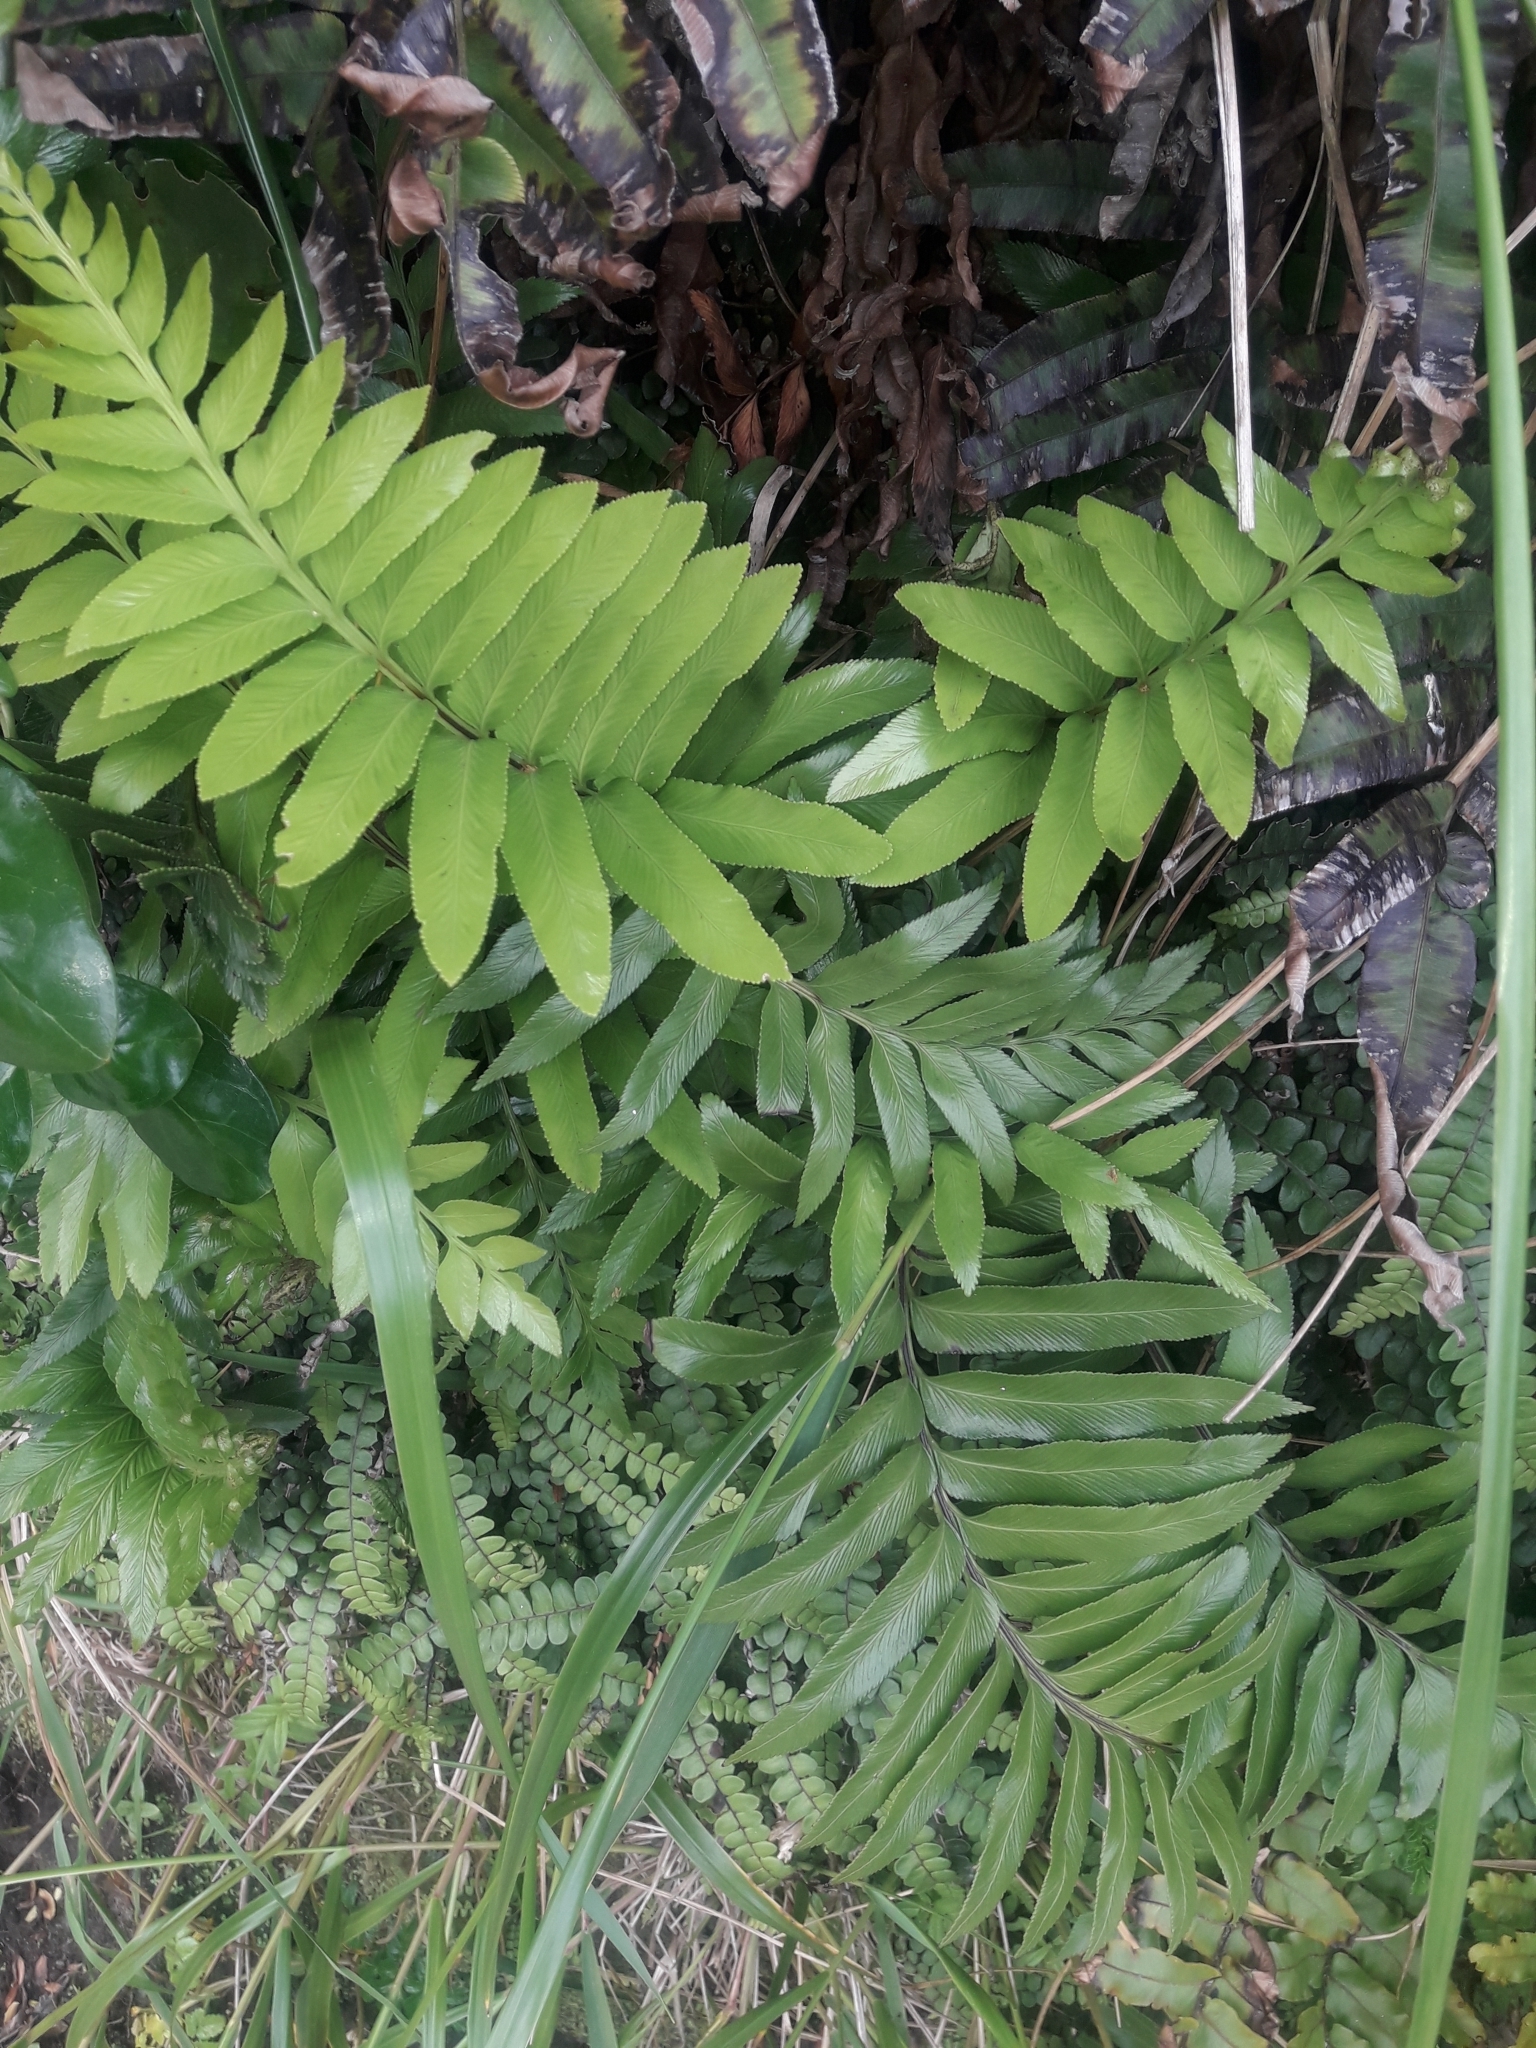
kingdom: Plantae
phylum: Tracheophyta
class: Polypodiopsida
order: Polypodiales
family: Aspleniaceae
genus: Asplenium
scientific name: Asplenium obtusatum
